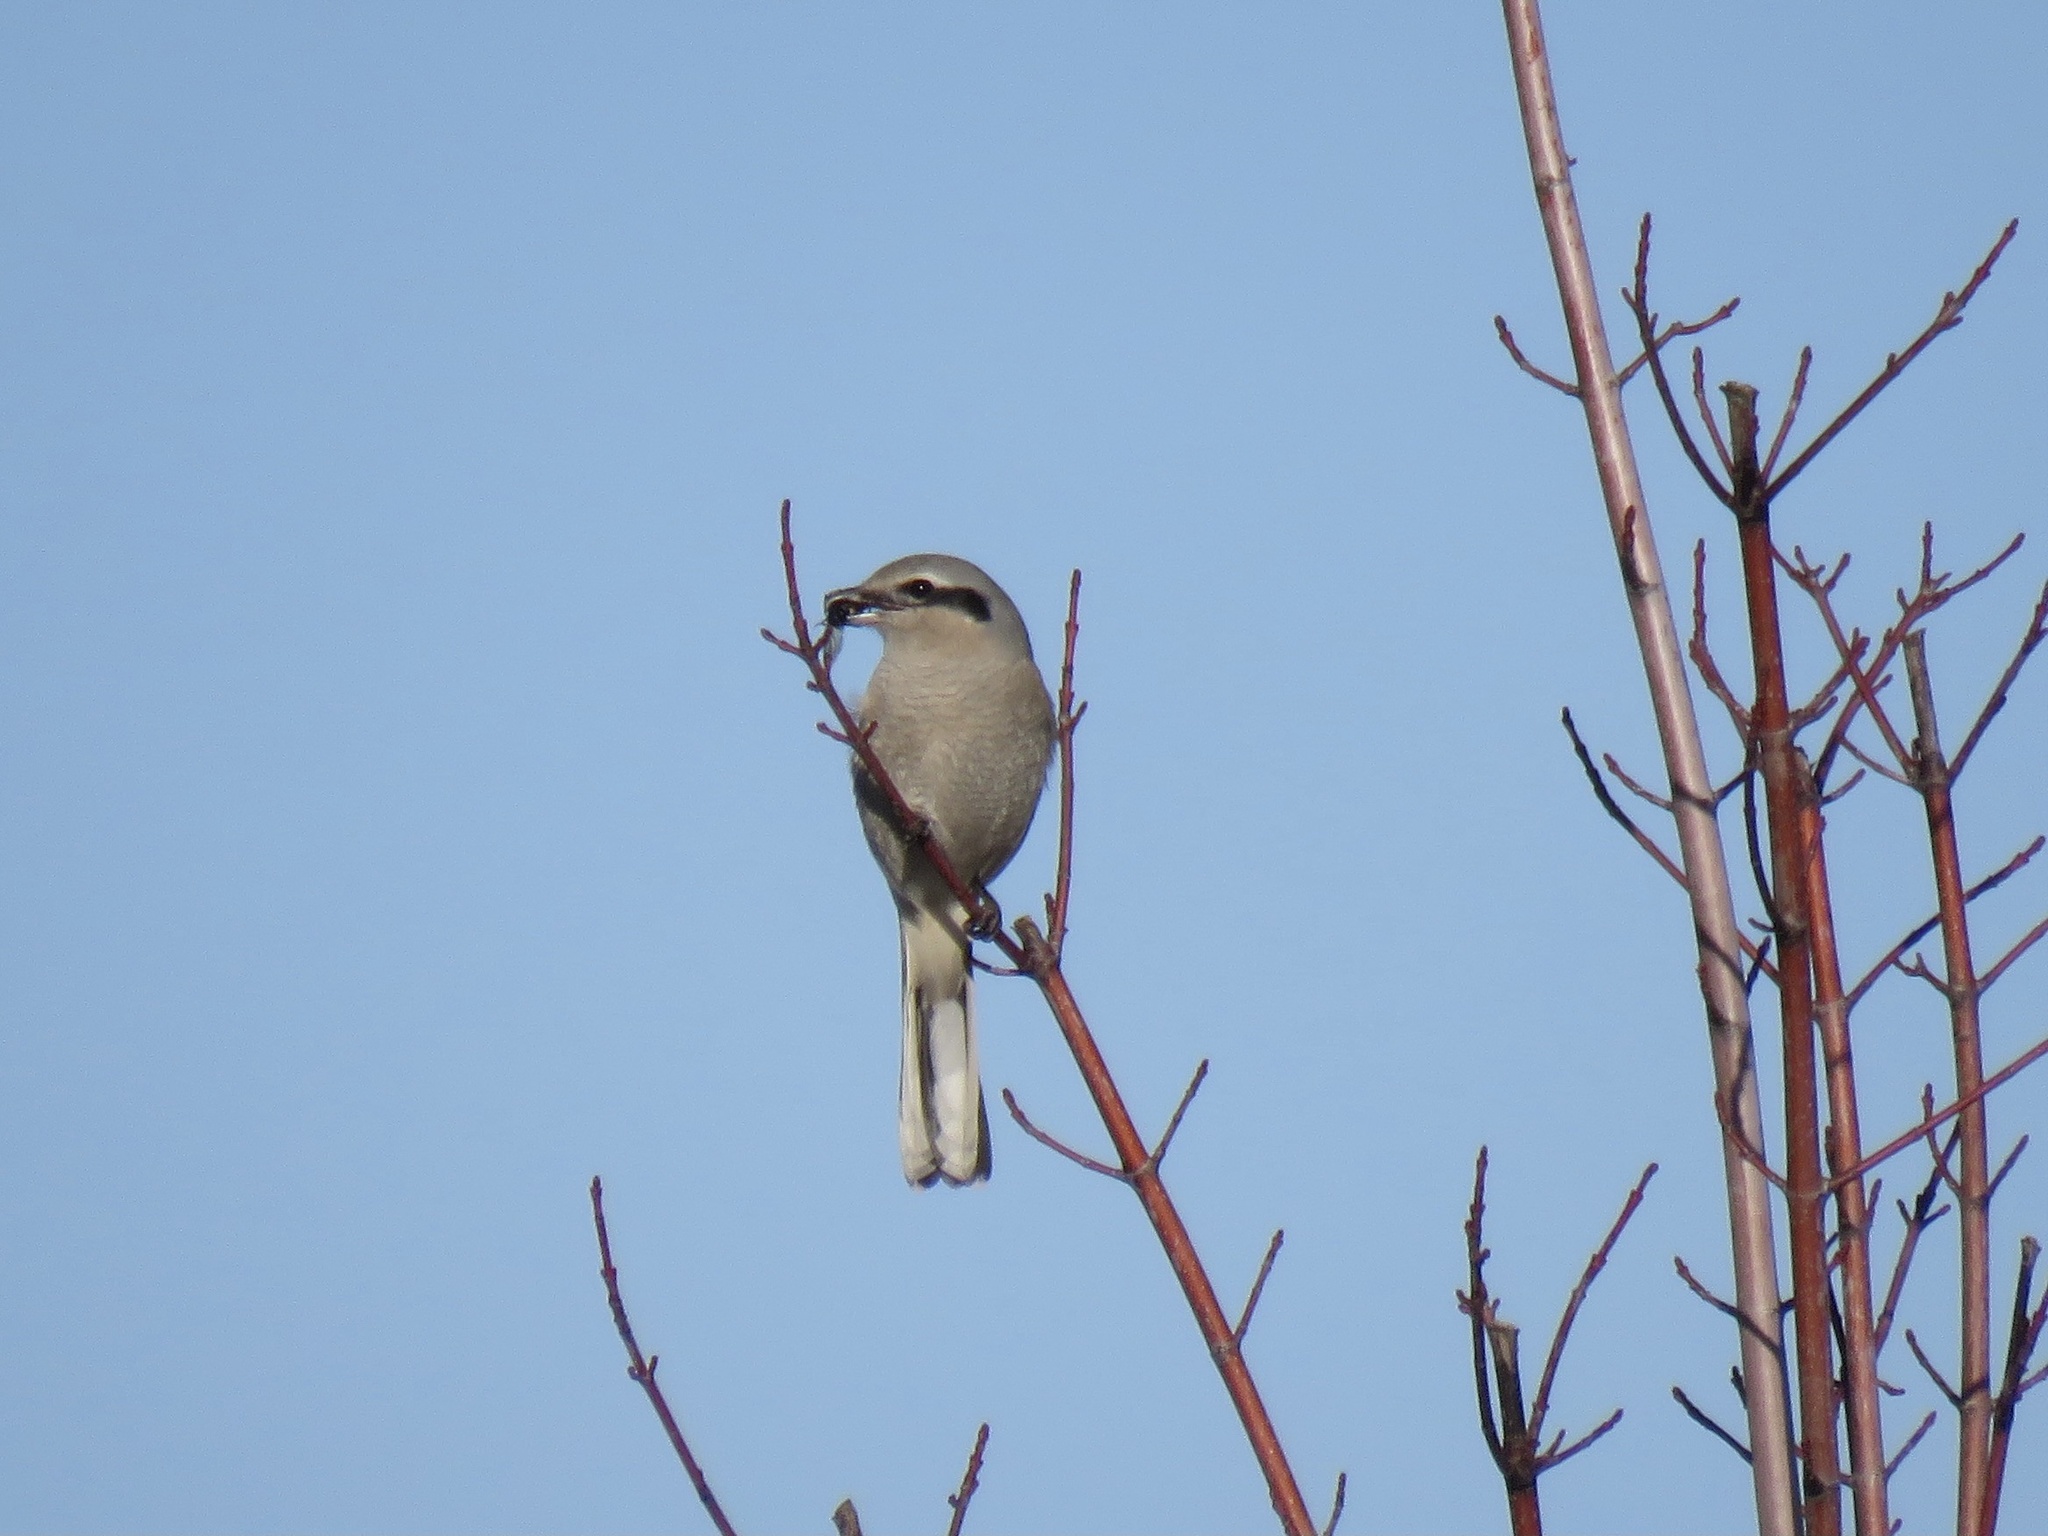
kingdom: Animalia
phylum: Chordata
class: Aves
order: Passeriformes
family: Laniidae
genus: Lanius
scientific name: Lanius borealis
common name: Northern shrike
